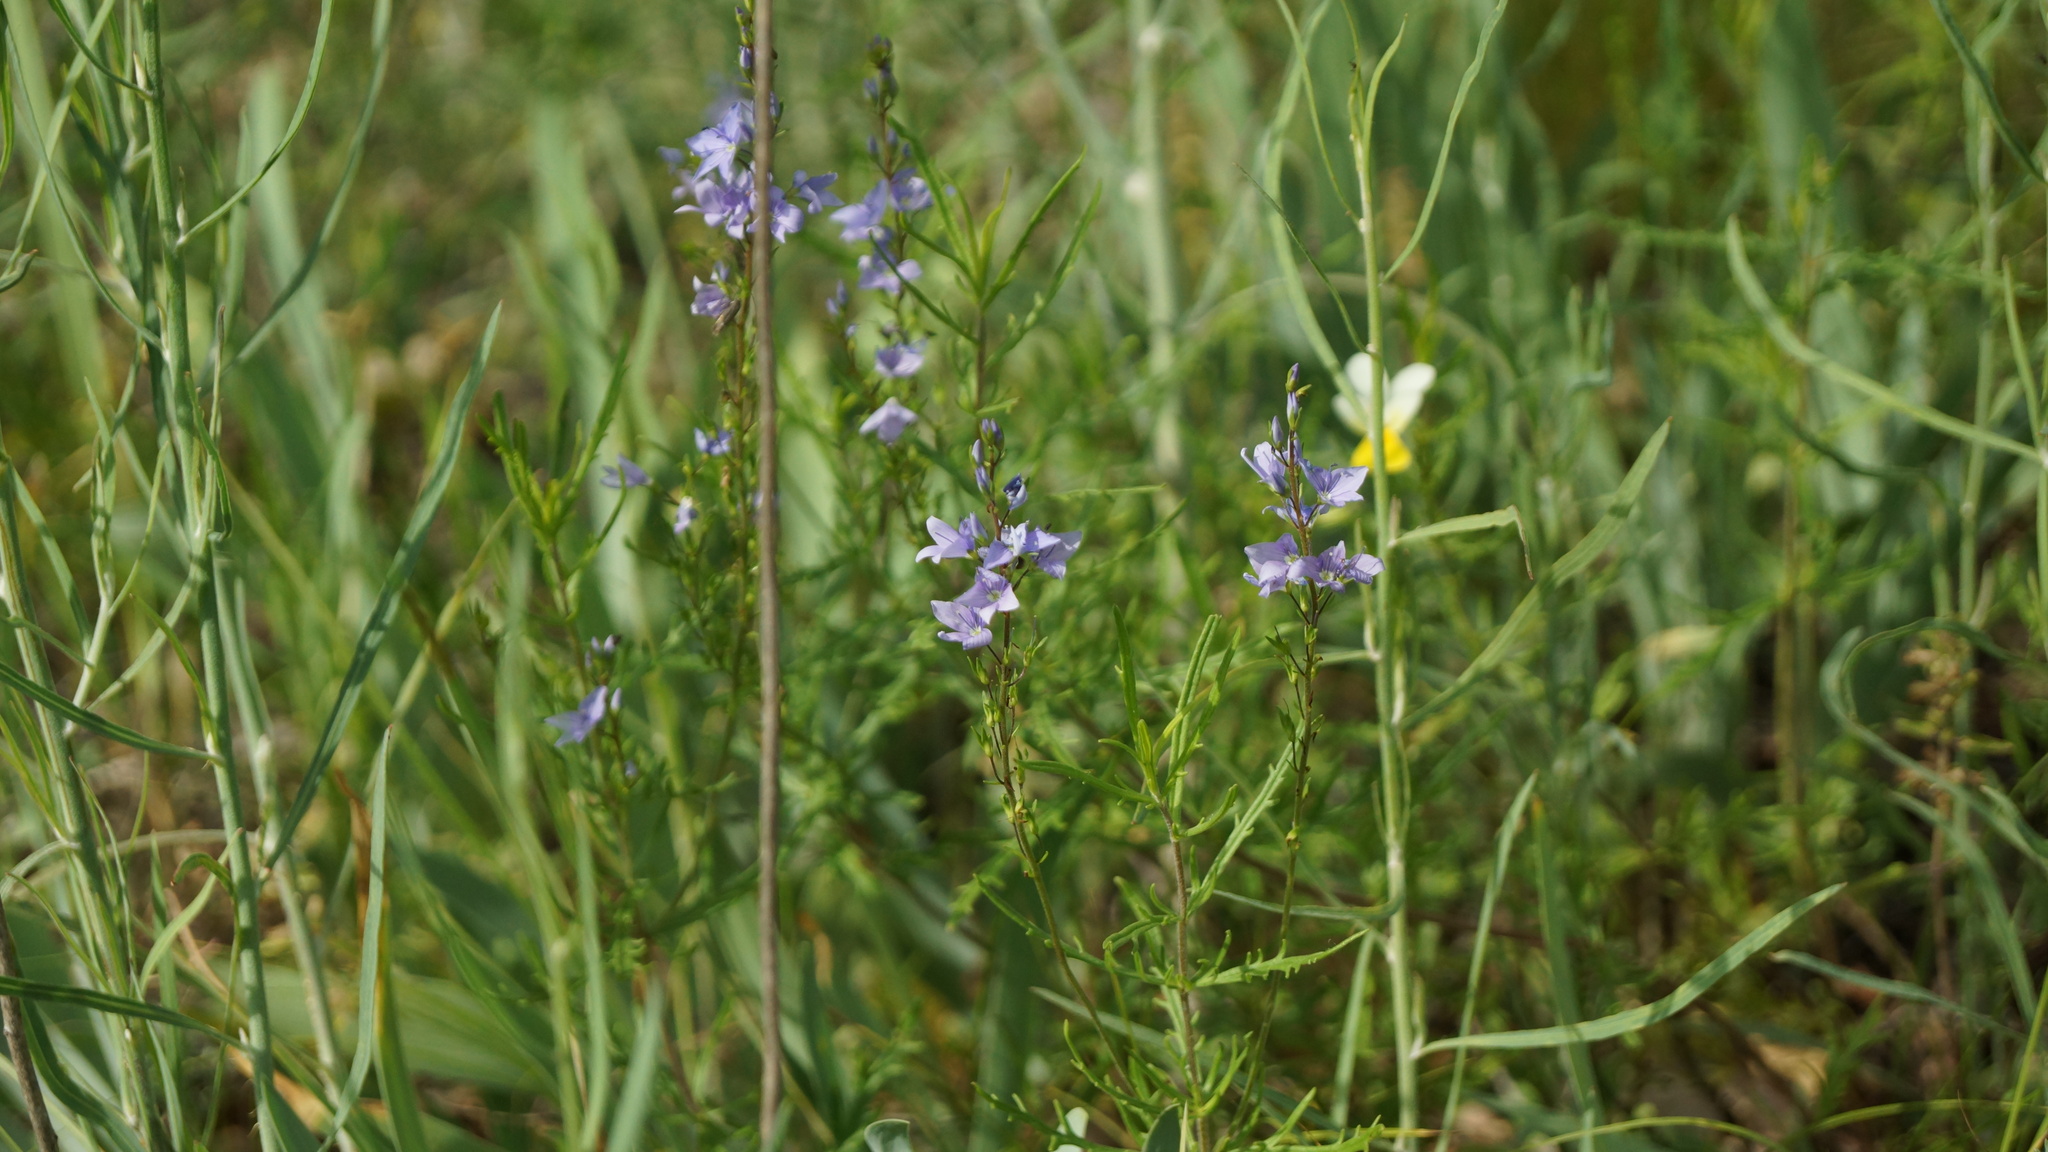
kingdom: Plantae
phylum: Tracheophyta
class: Magnoliopsida
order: Lamiales
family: Plantaginaceae
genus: Veronica
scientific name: Veronica austriaca
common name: Large speedwell
